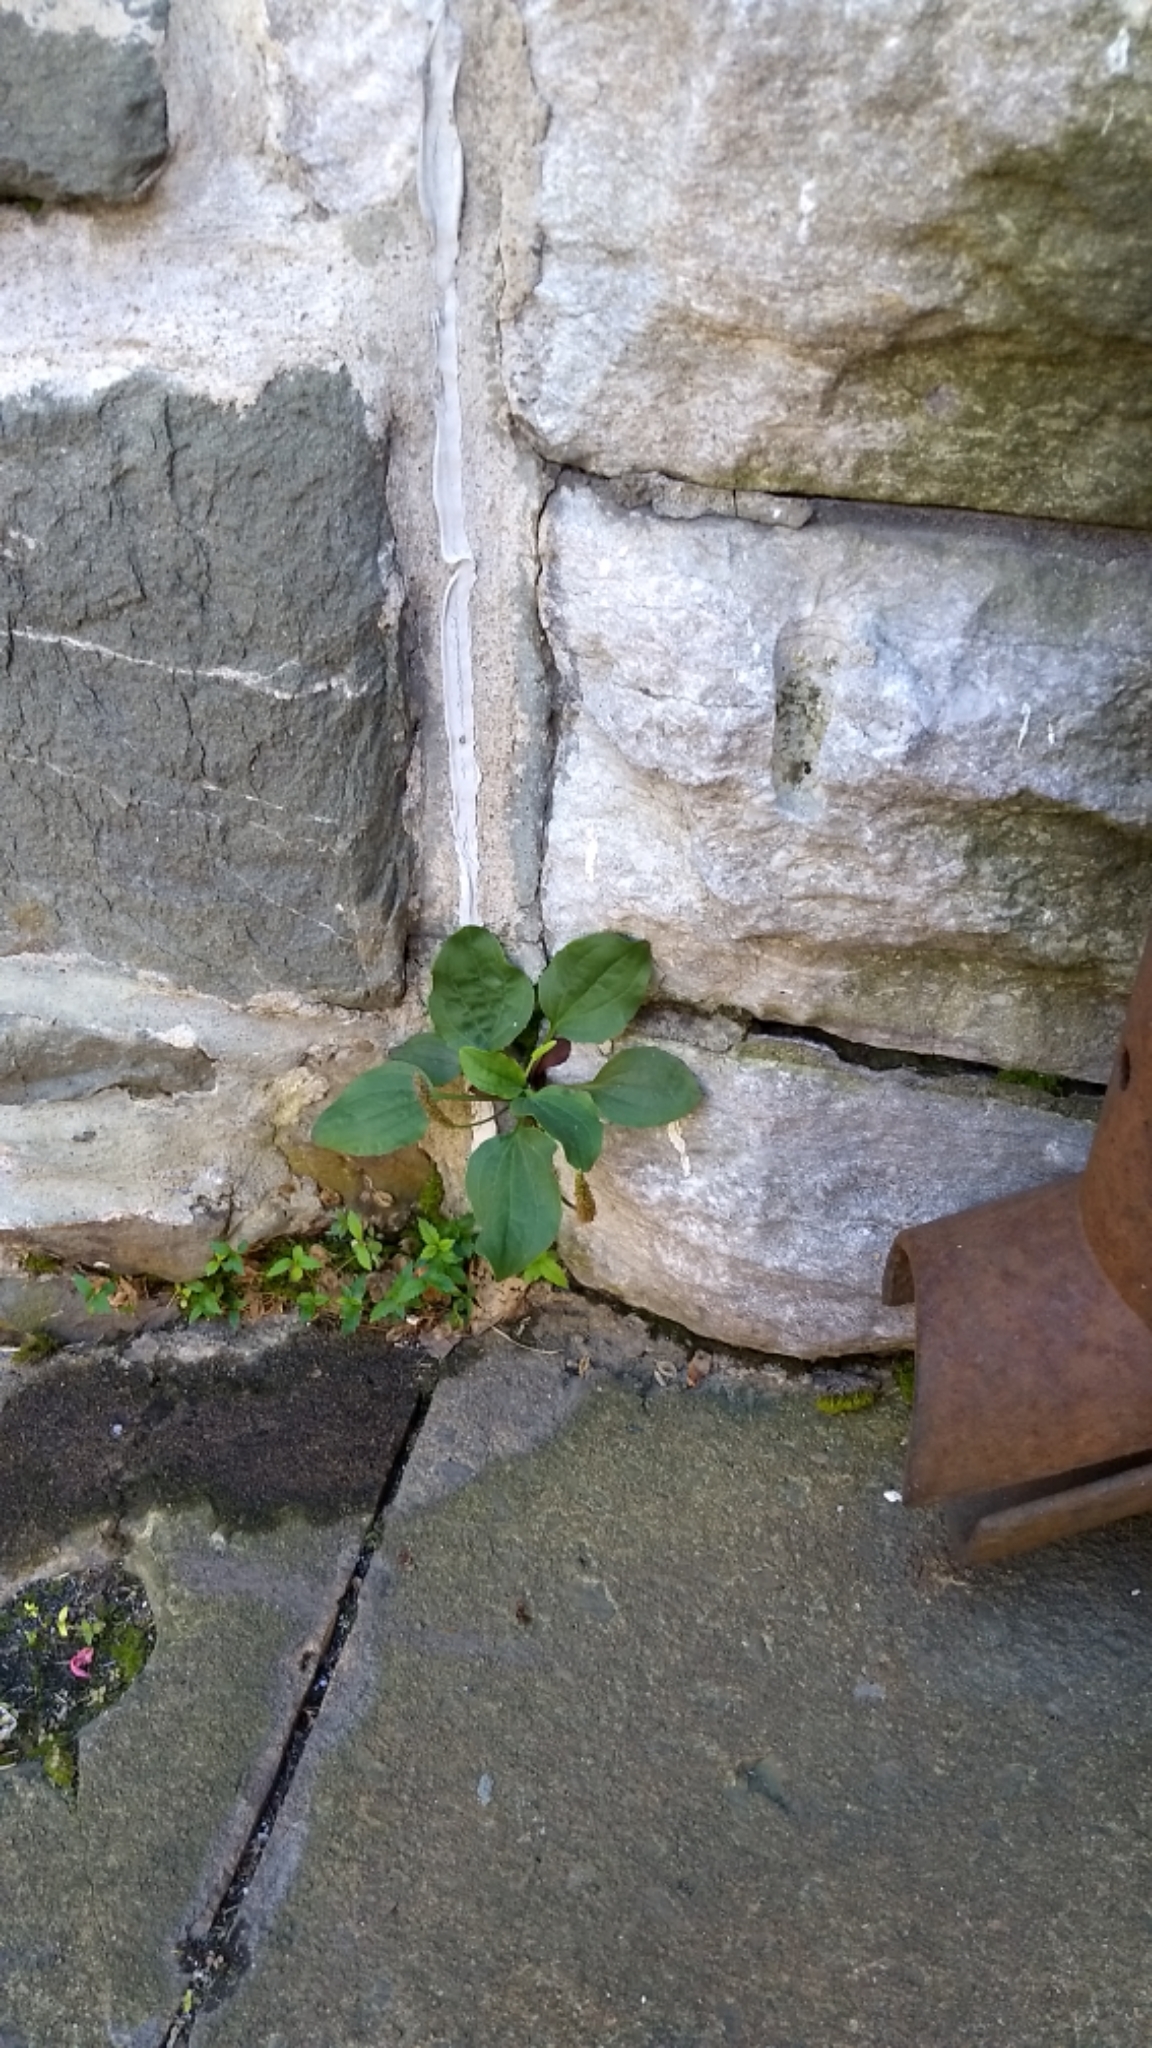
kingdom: Plantae
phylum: Tracheophyta
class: Magnoliopsida
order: Lamiales
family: Plantaginaceae
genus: Plantago
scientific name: Plantago major
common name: Common plantain
